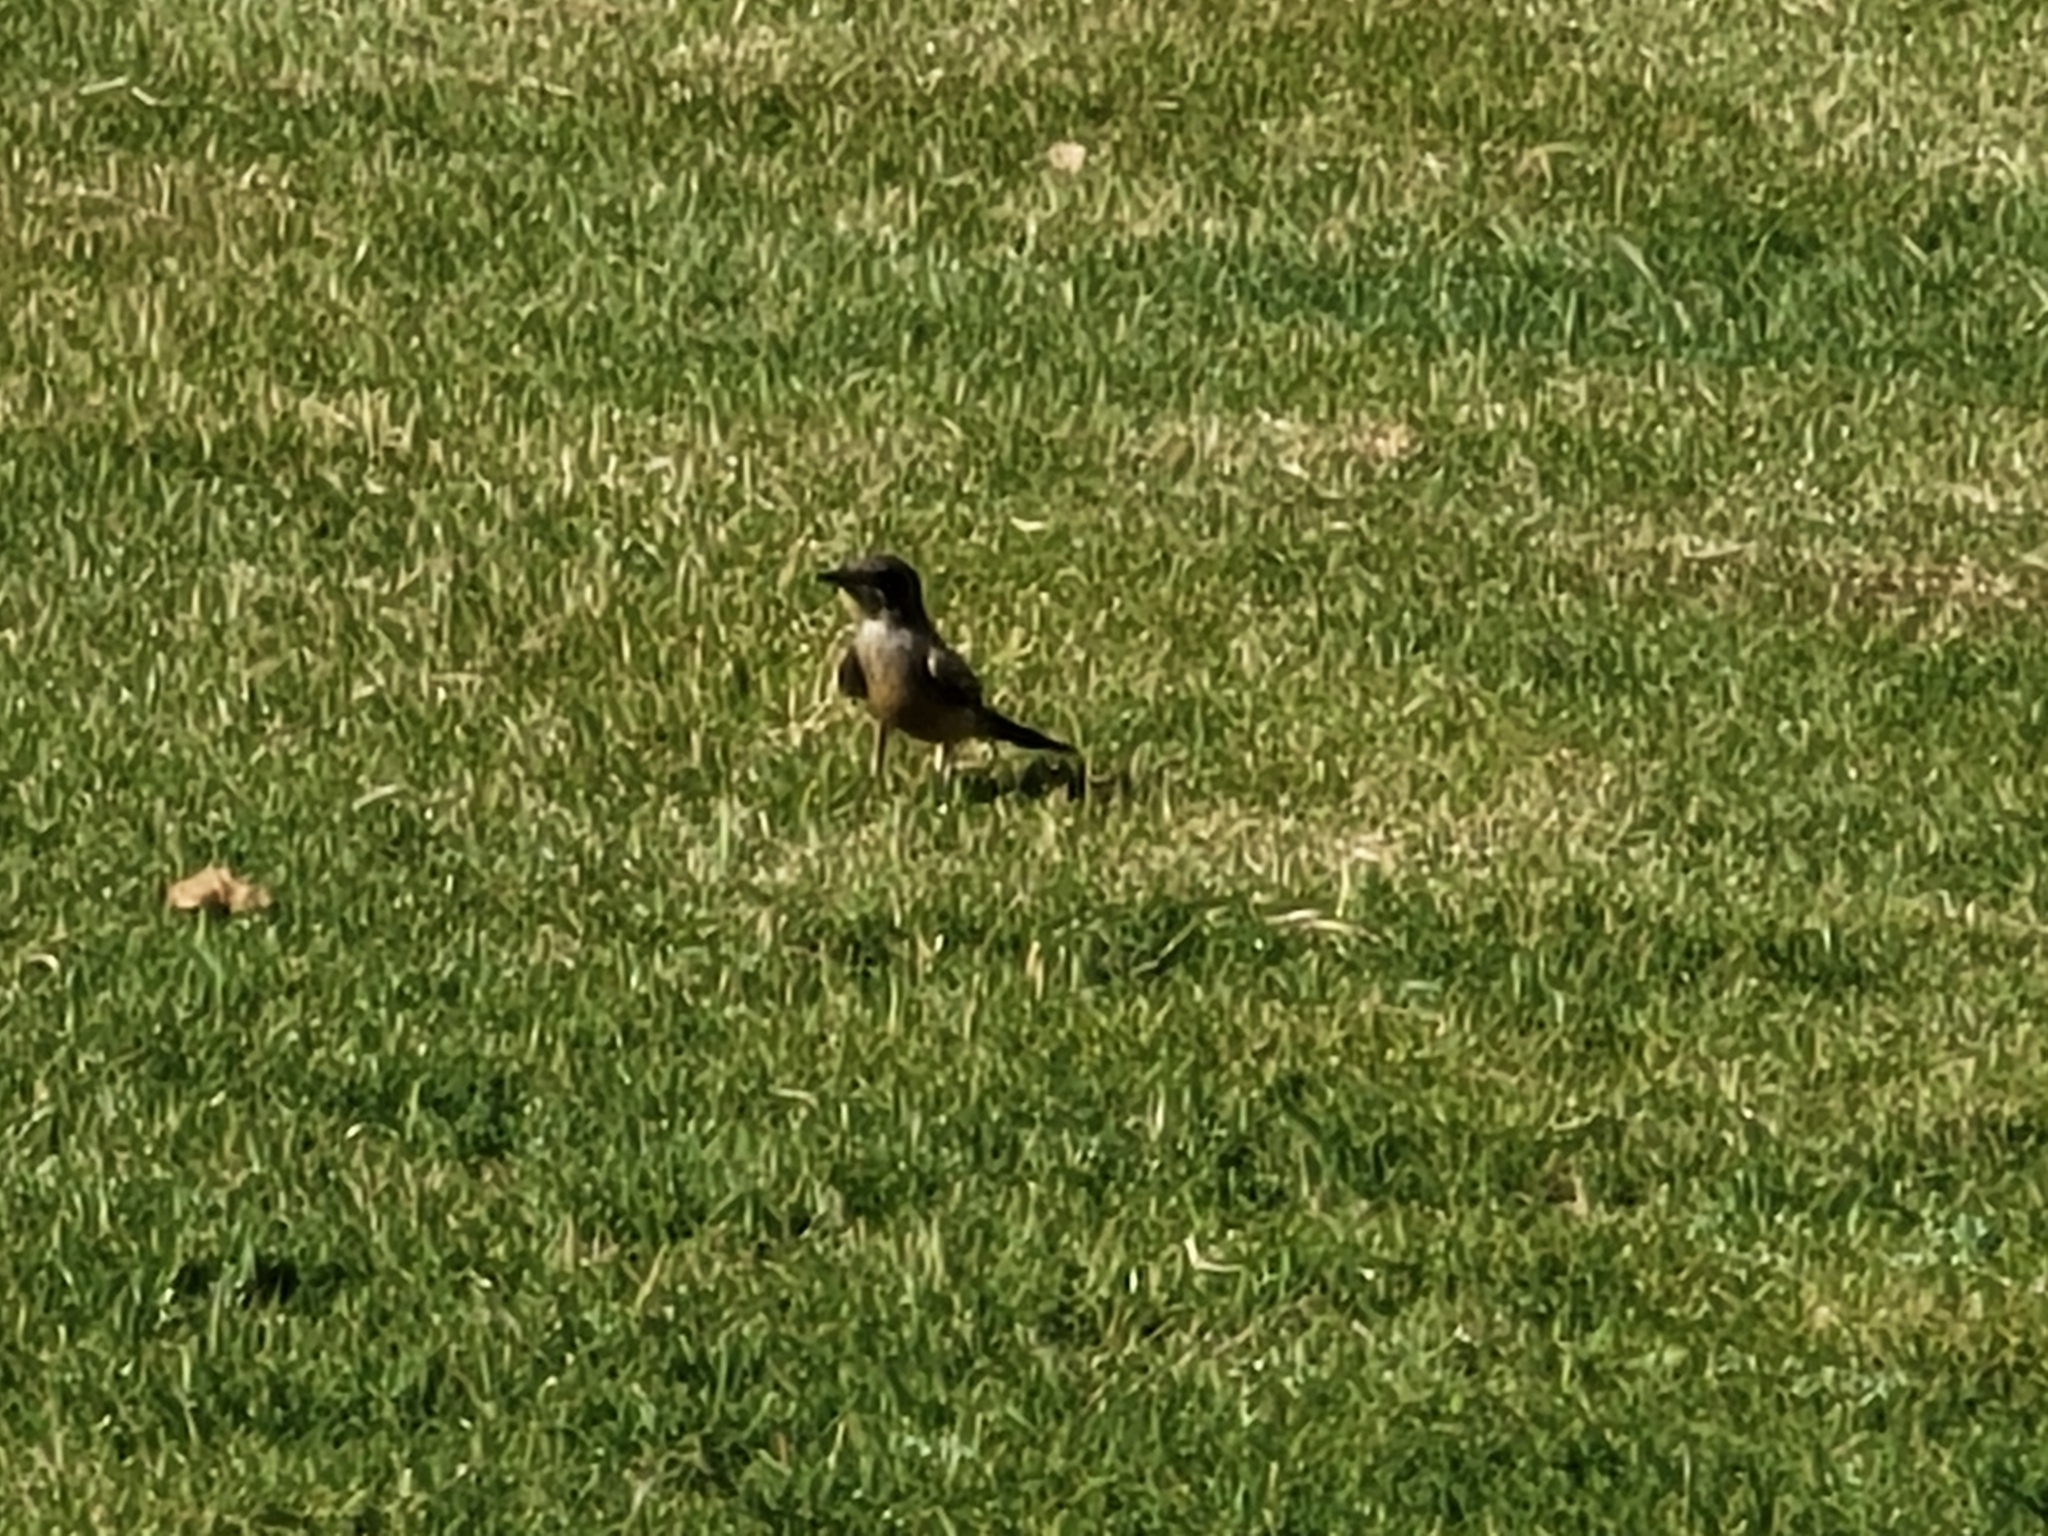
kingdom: Animalia
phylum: Chordata
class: Aves
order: Passeriformes
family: Tyrannidae
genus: Sayornis
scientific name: Sayornis saya
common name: Say's phoebe
